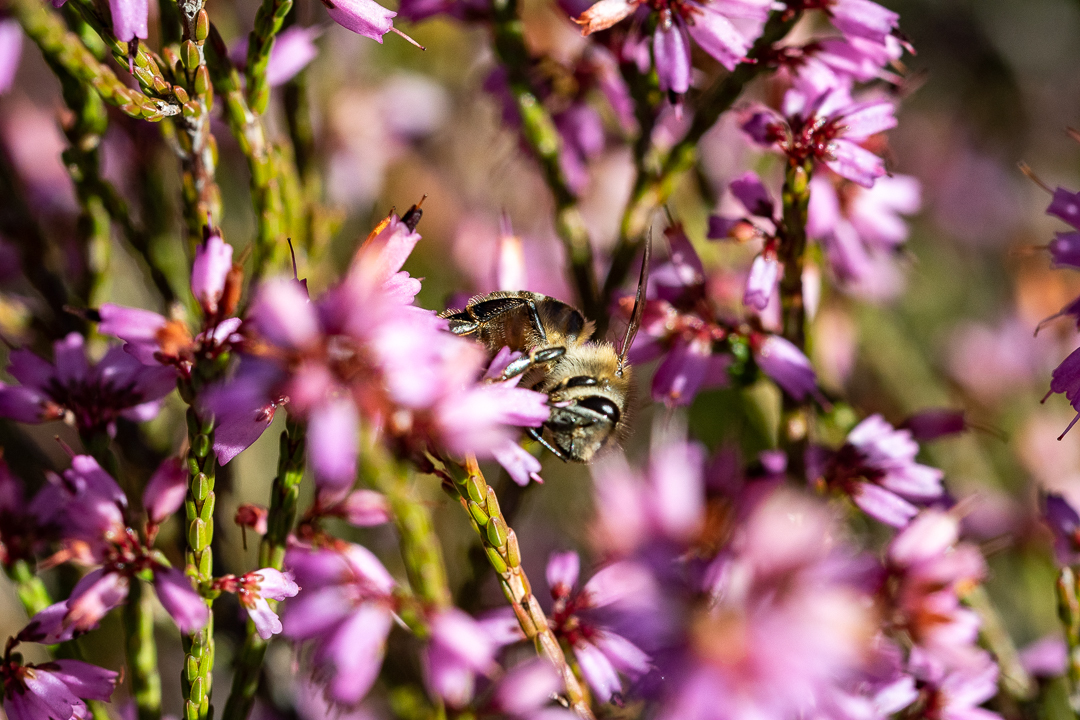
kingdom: Plantae
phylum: Tracheophyta
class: Magnoliopsida
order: Ericales
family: Ericaceae
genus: Erica
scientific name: Erica equisetifolia
